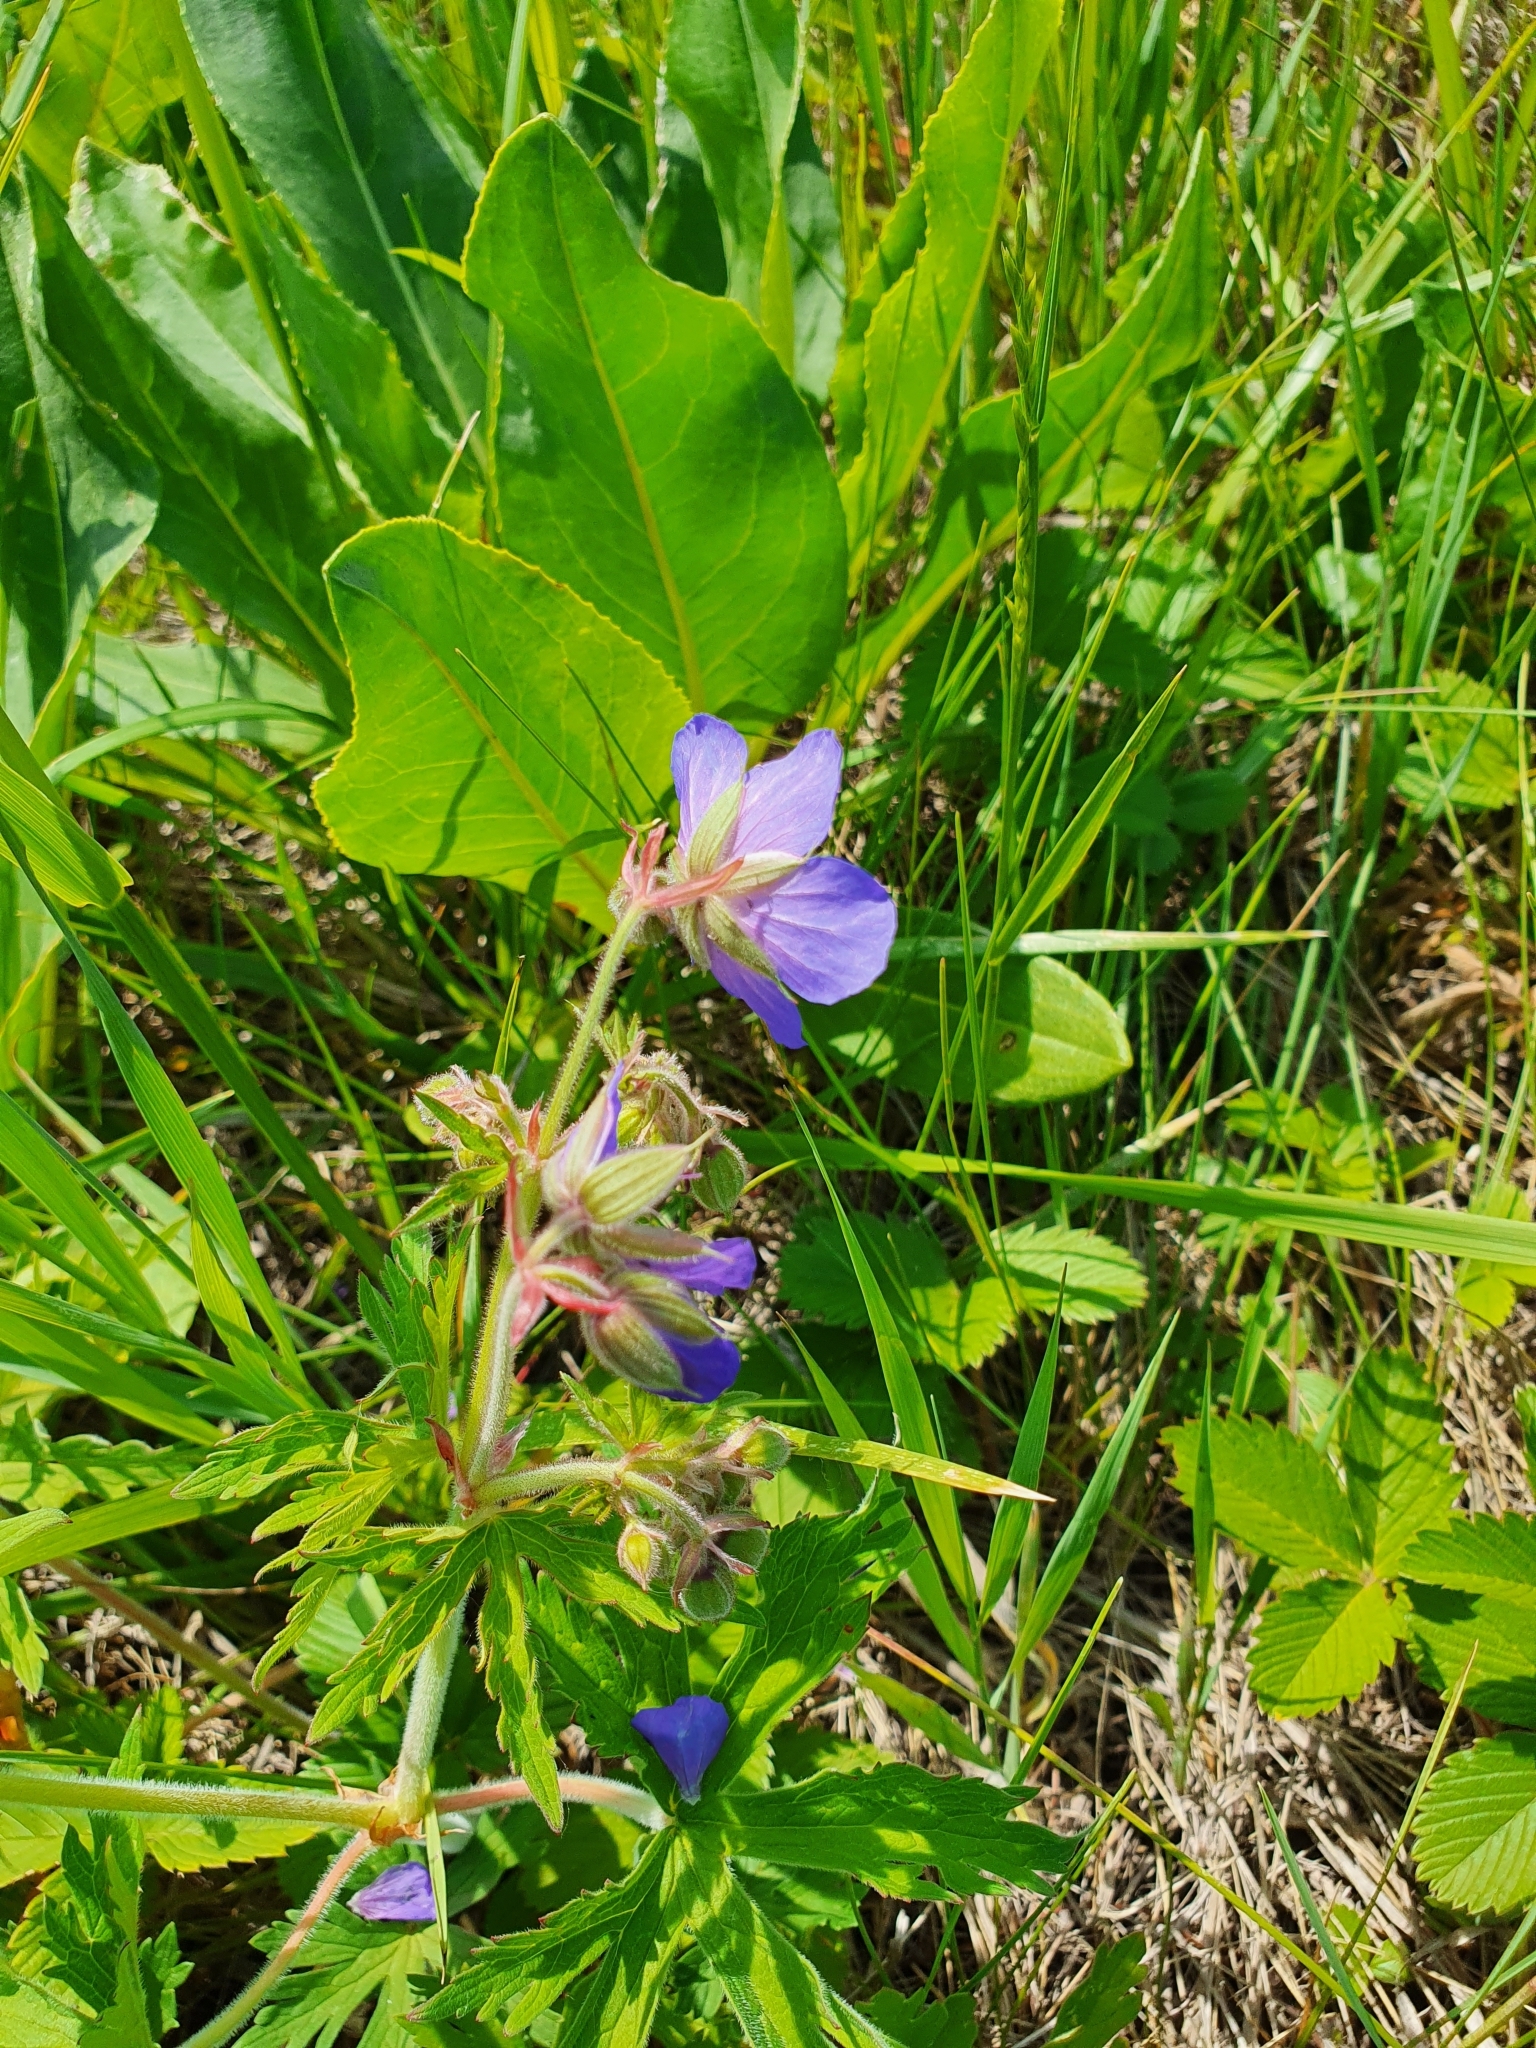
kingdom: Plantae
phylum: Tracheophyta
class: Magnoliopsida
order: Geraniales
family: Geraniaceae
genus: Geranium
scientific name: Geranium pratense
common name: Meadow crane's-bill
